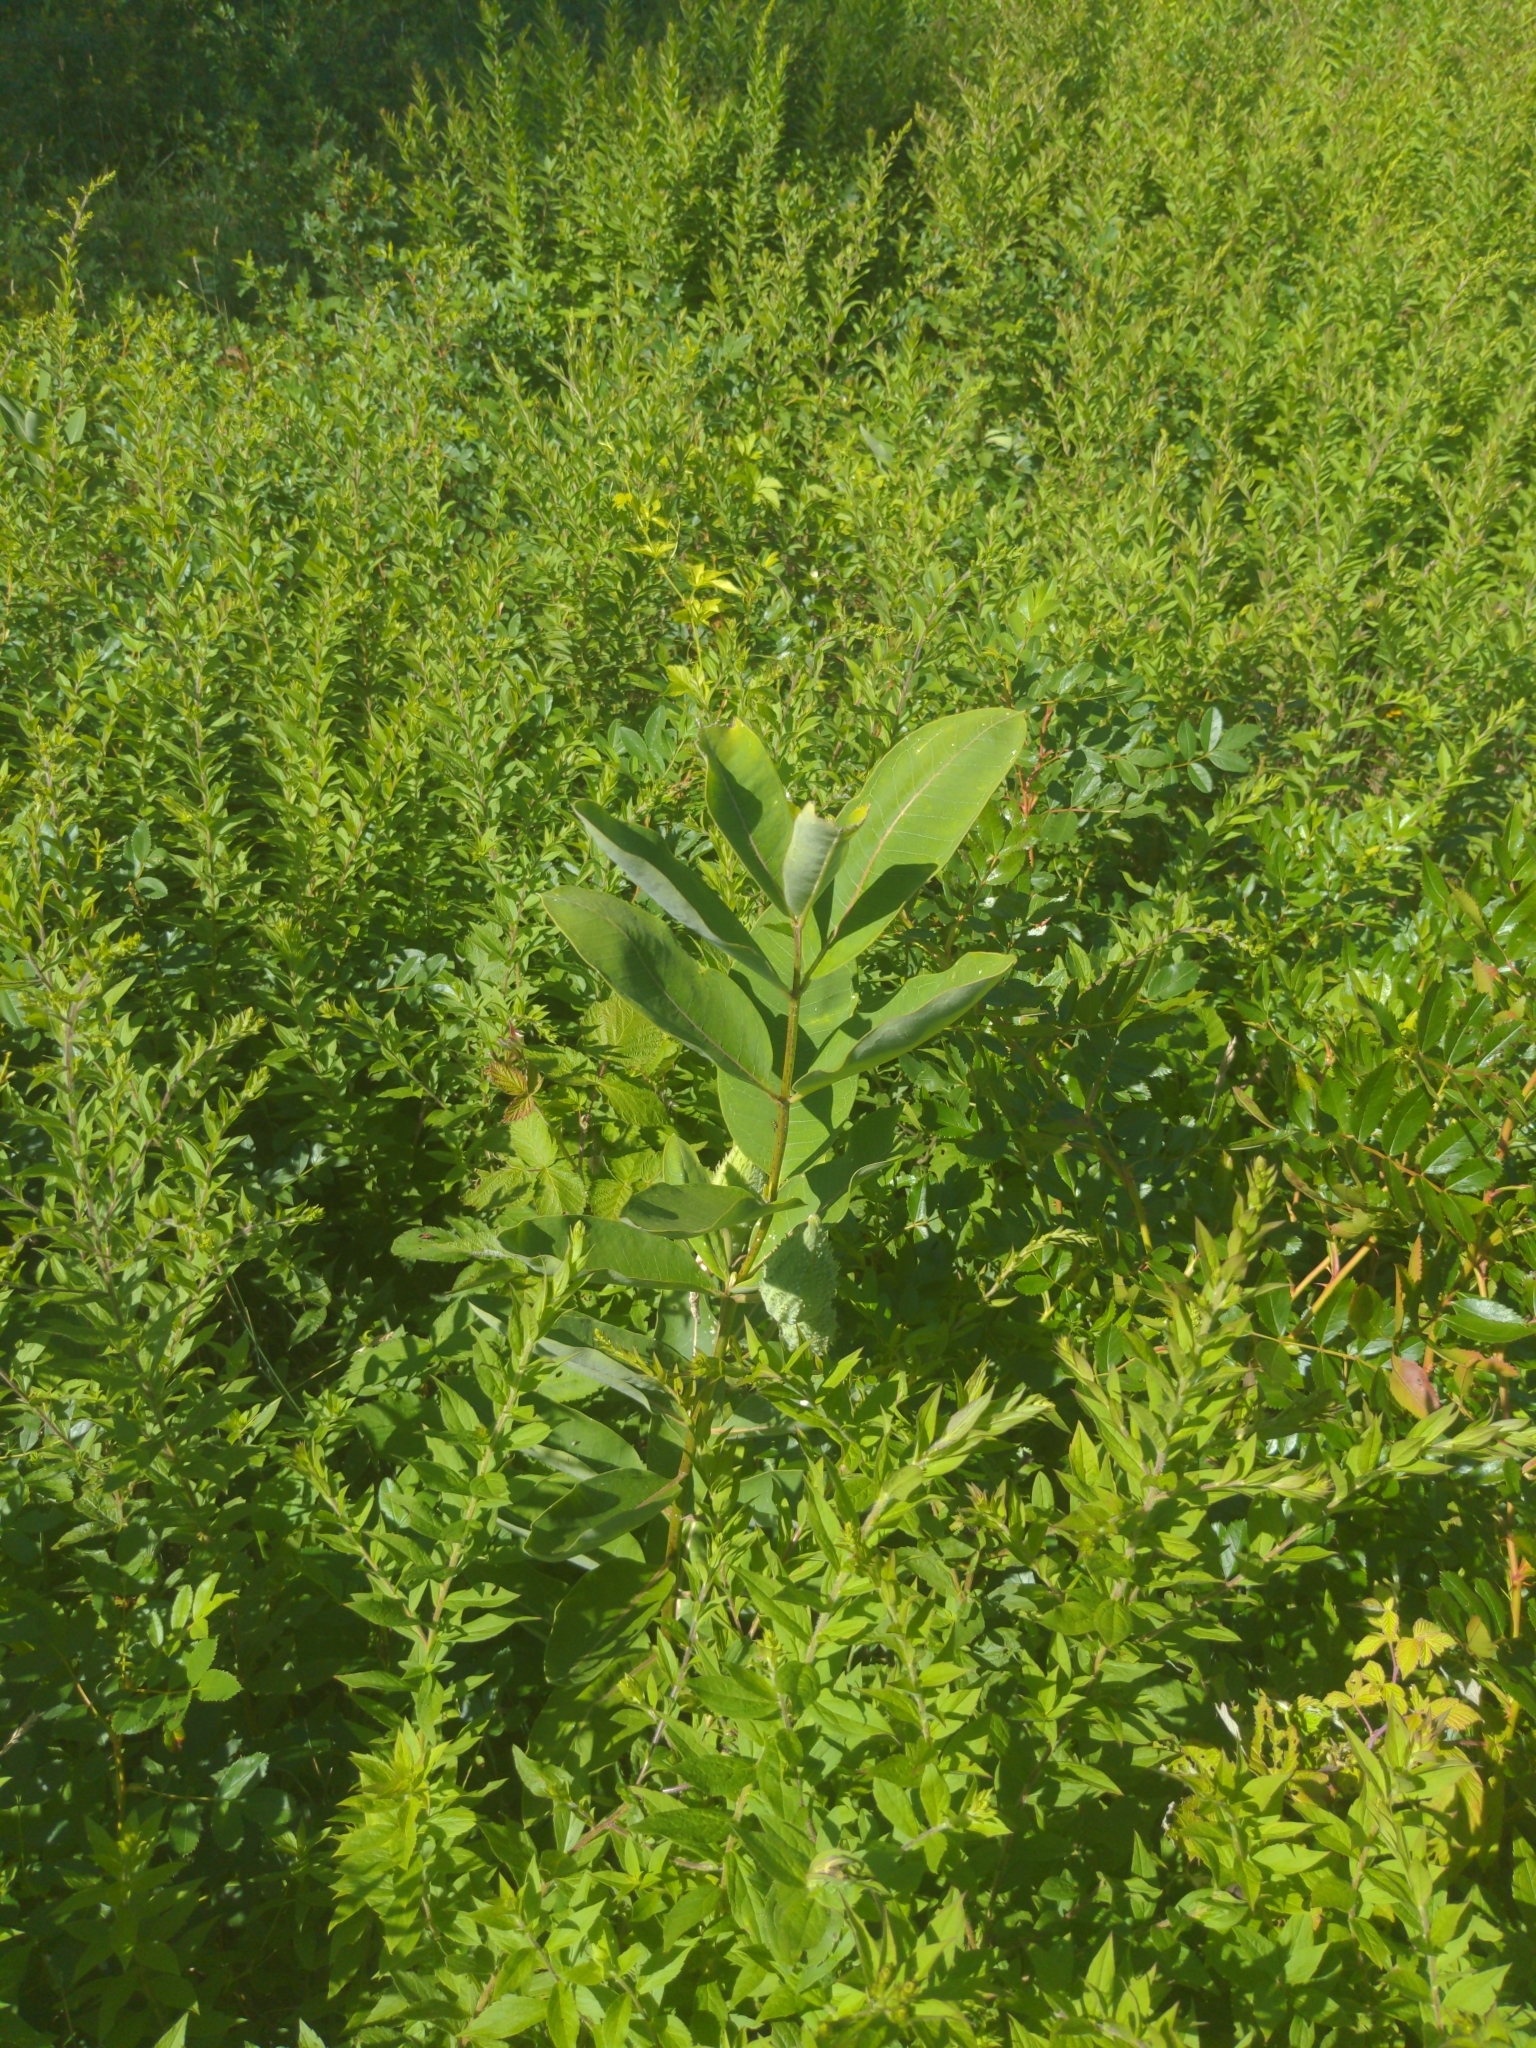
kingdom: Plantae
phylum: Tracheophyta
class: Magnoliopsida
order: Gentianales
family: Apocynaceae
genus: Asclepias
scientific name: Asclepias syriaca
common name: Common milkweed
